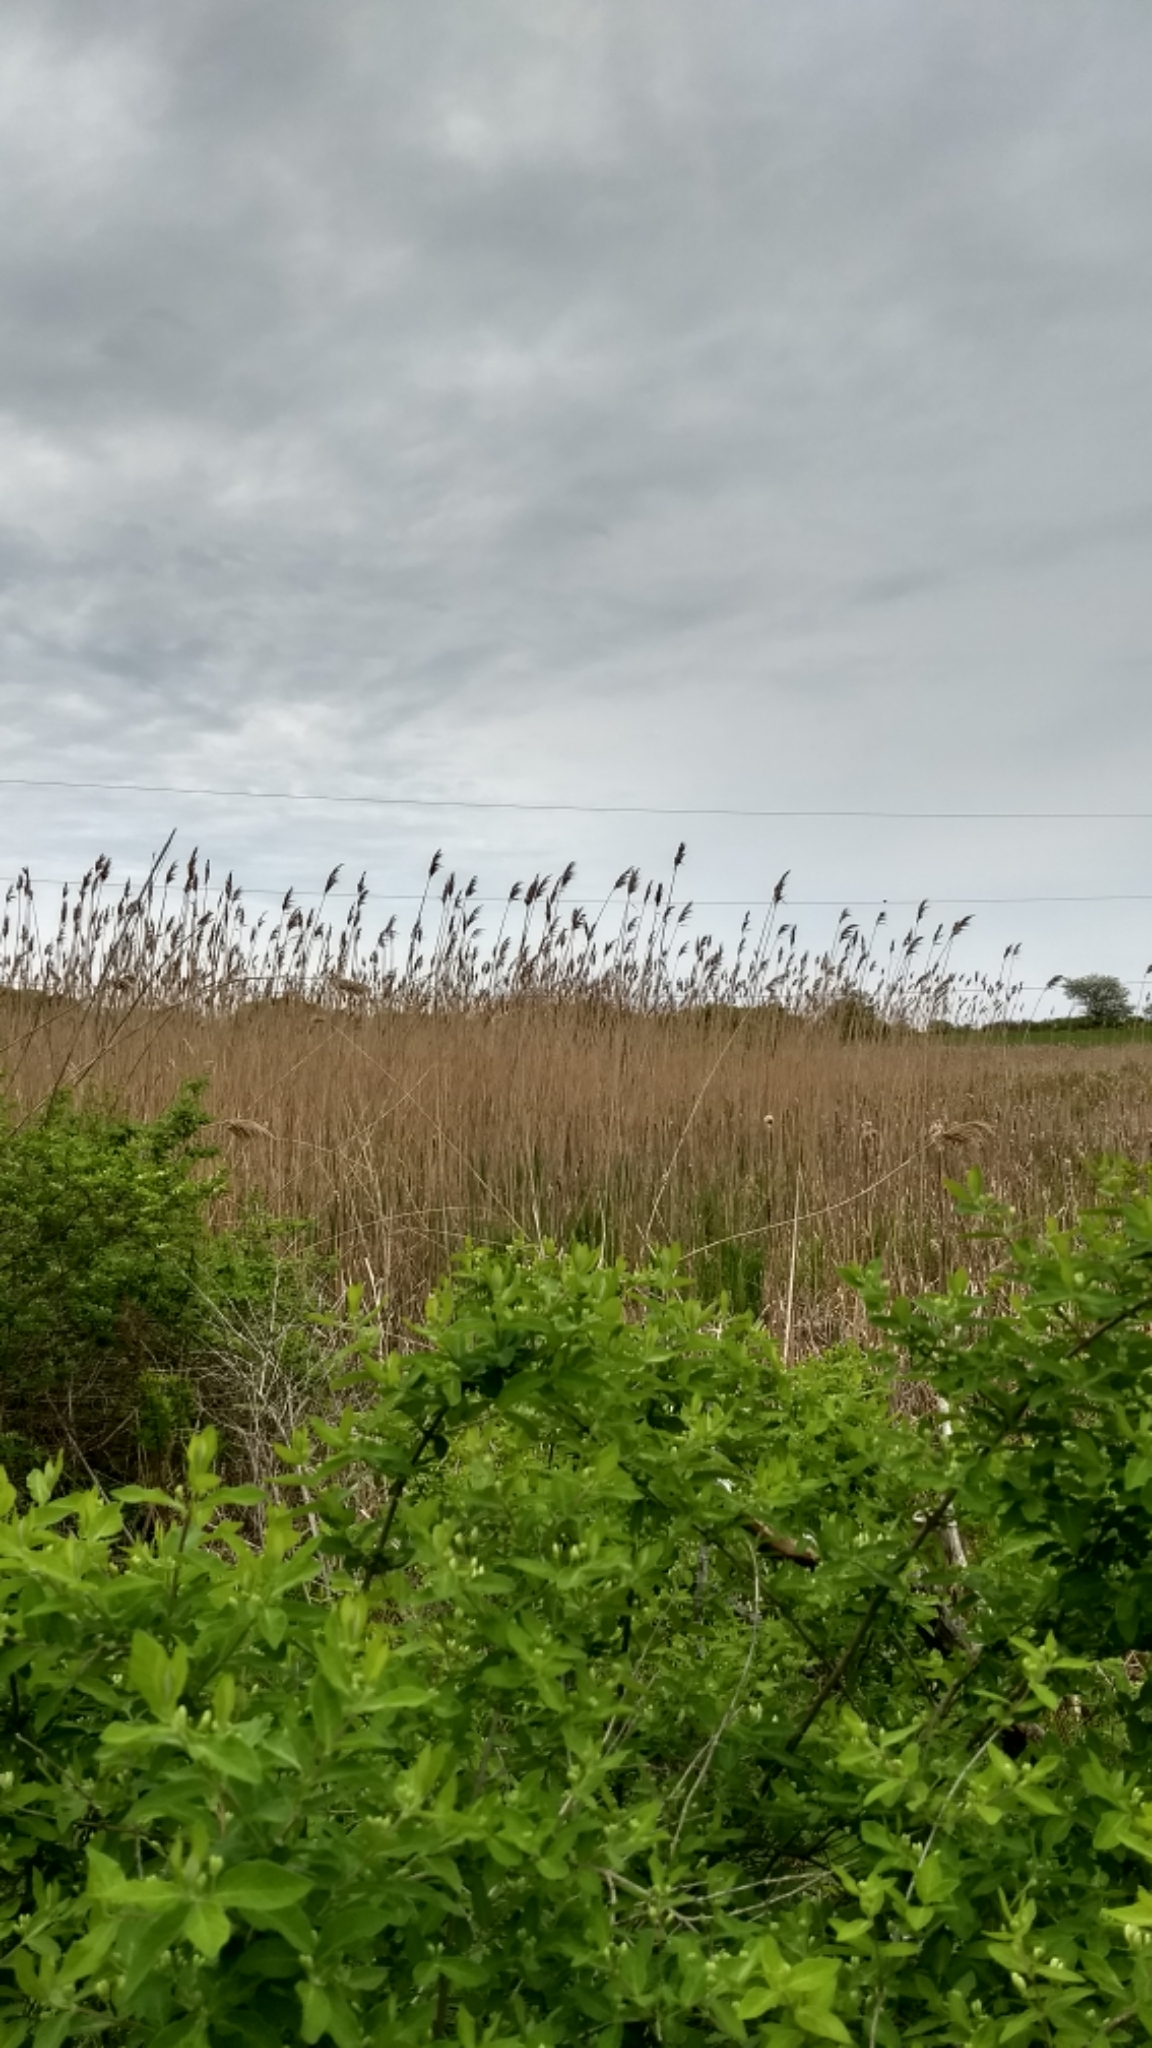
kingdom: Plantae
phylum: Tracheophyta
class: Liliopsida
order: Poales
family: Poaceae
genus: Phragmites
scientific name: Phragmites australis
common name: Common reed
